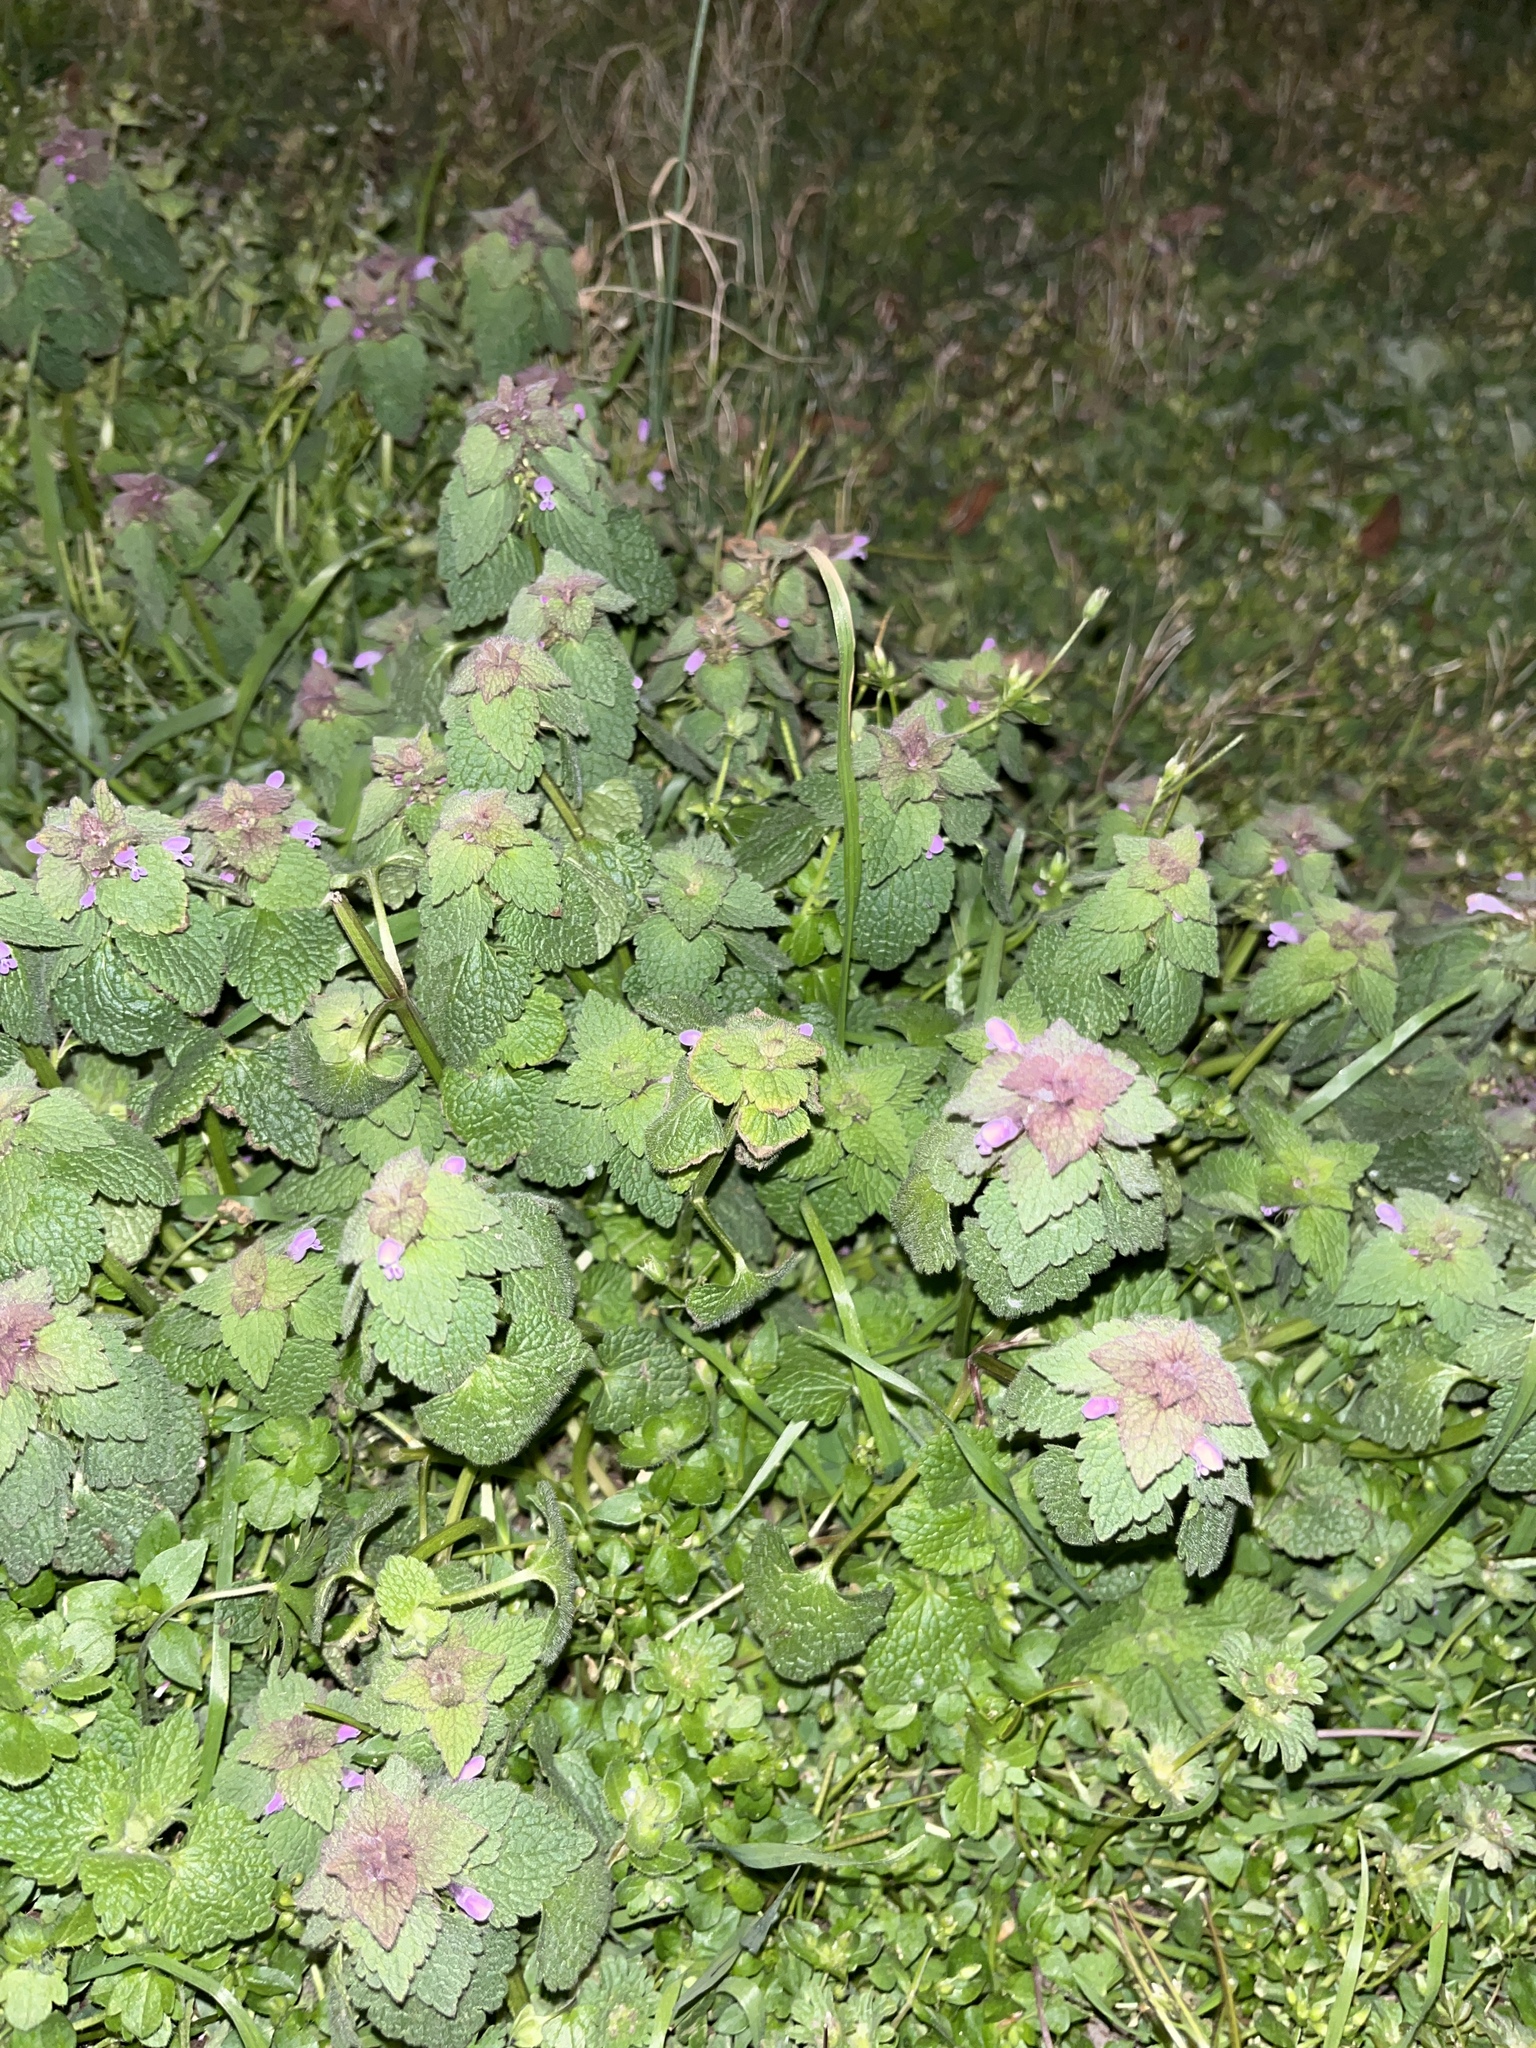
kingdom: Plantae
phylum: Tracheophyta
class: Magnoliopsida
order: Lamiales
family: Lamiaceae
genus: Lamium
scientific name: Lamium purpureum
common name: Red dead-nettle
